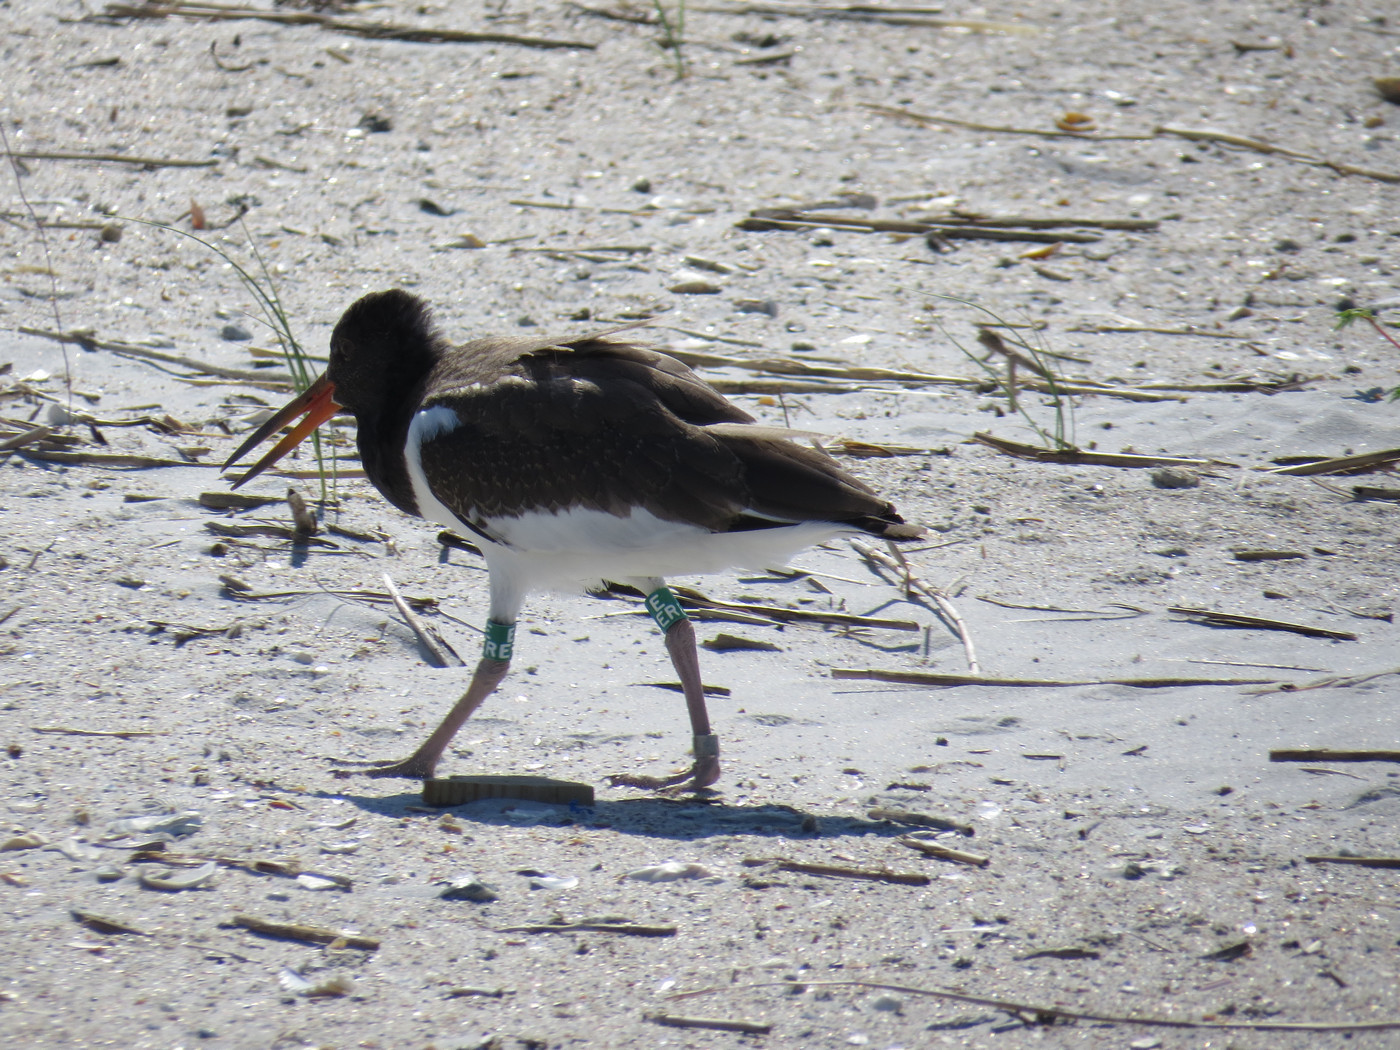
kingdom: Animalia
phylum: Chordata
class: Aves
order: Charadriiformes
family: Haematopodidae
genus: Haematopus
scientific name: Haematopus palliatus
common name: American oystercatcher
